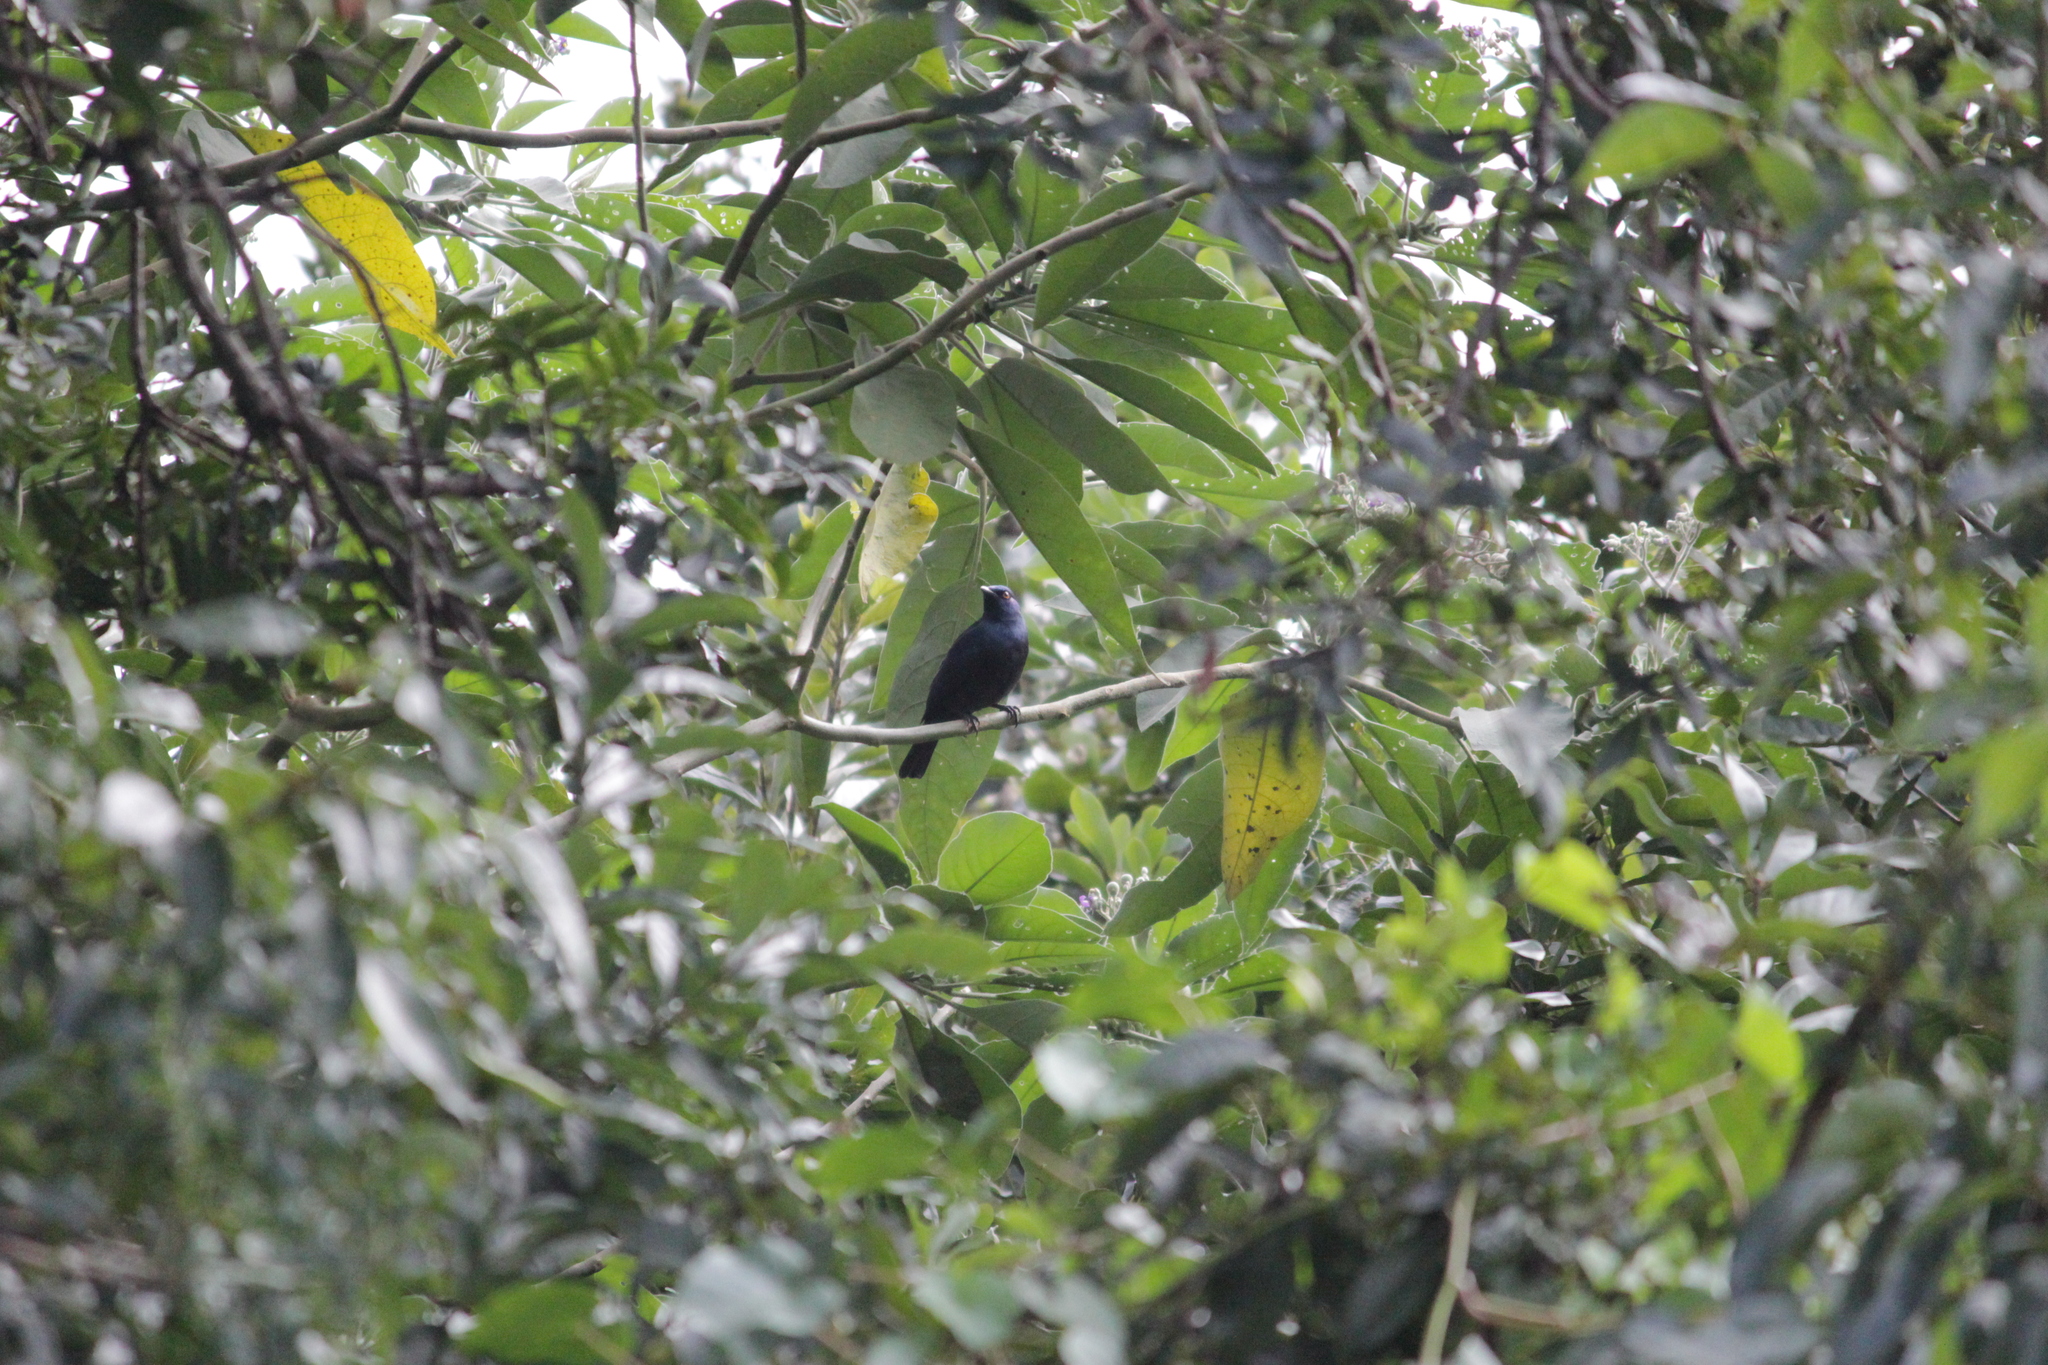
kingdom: Animalia
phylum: Chordata
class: Aves
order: Passeriformes
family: Sturnidae
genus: Notopholia
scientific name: Notopholia corrusca
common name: Black-bellied starling
